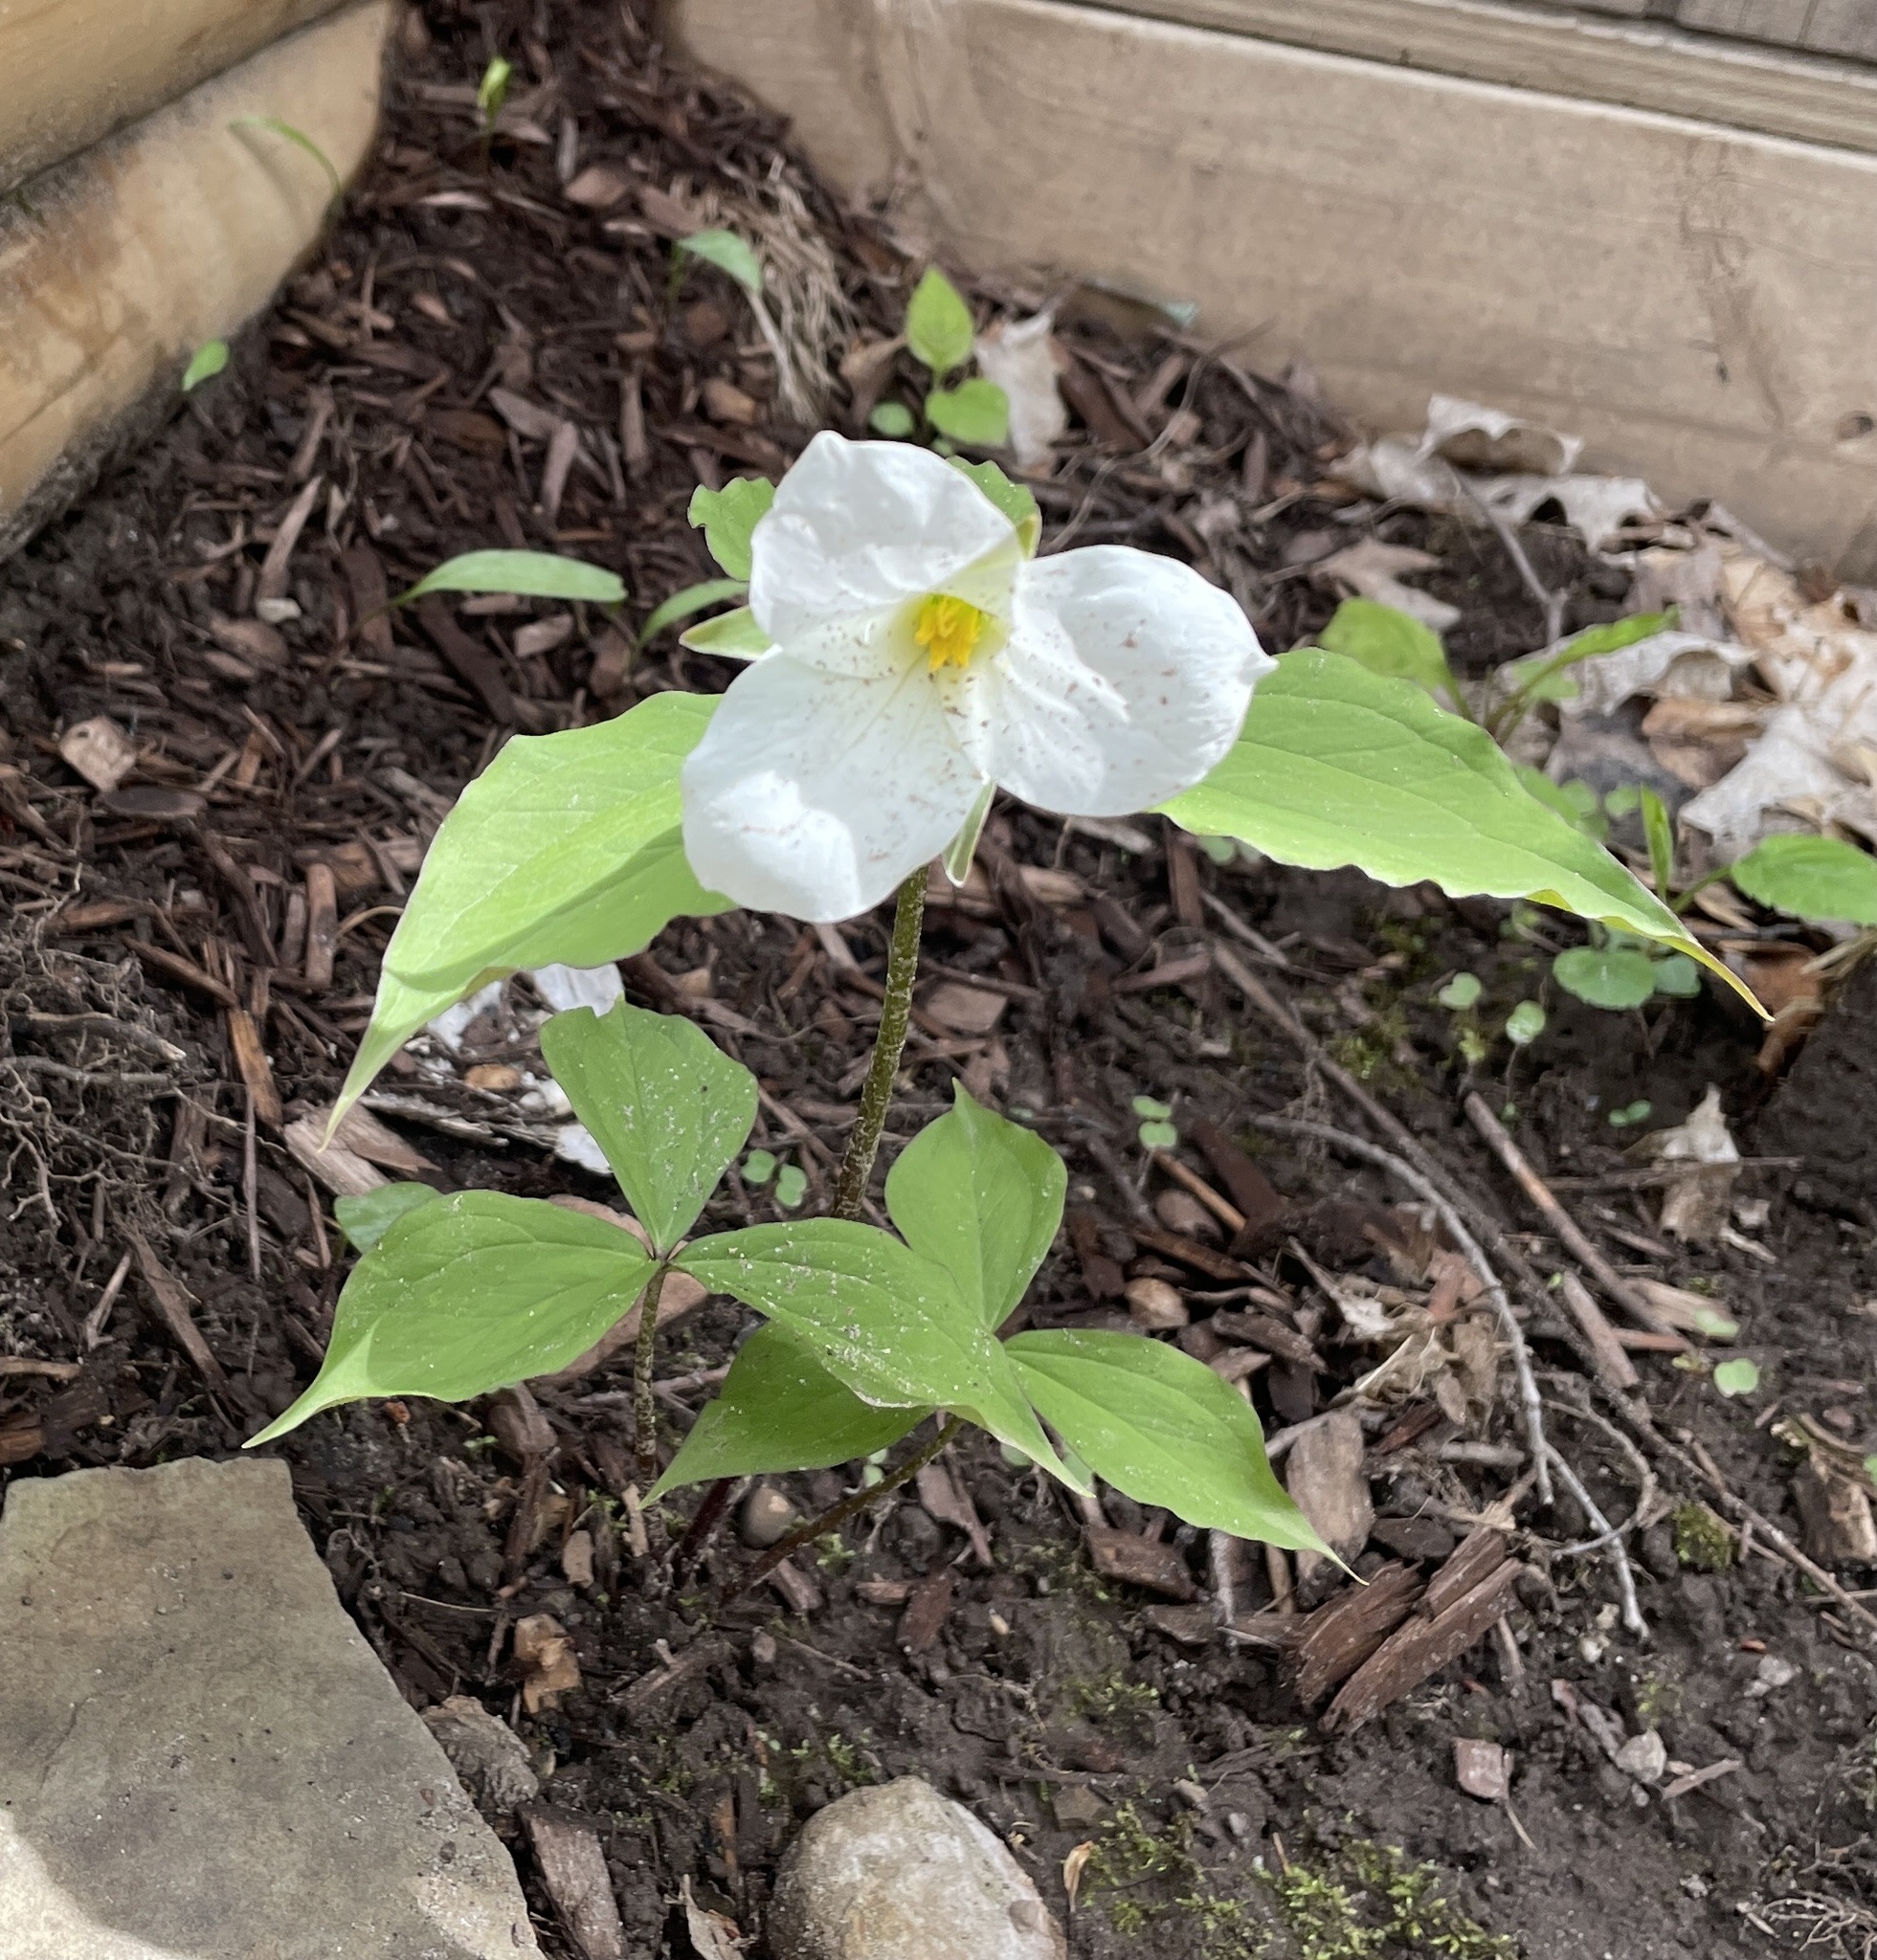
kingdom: Plantae
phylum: Tracheophyta
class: Liliopsida
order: Liliales
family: Melanthiaceae
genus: Trillium
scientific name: Trillium grandiflorum
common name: Great white trillium
